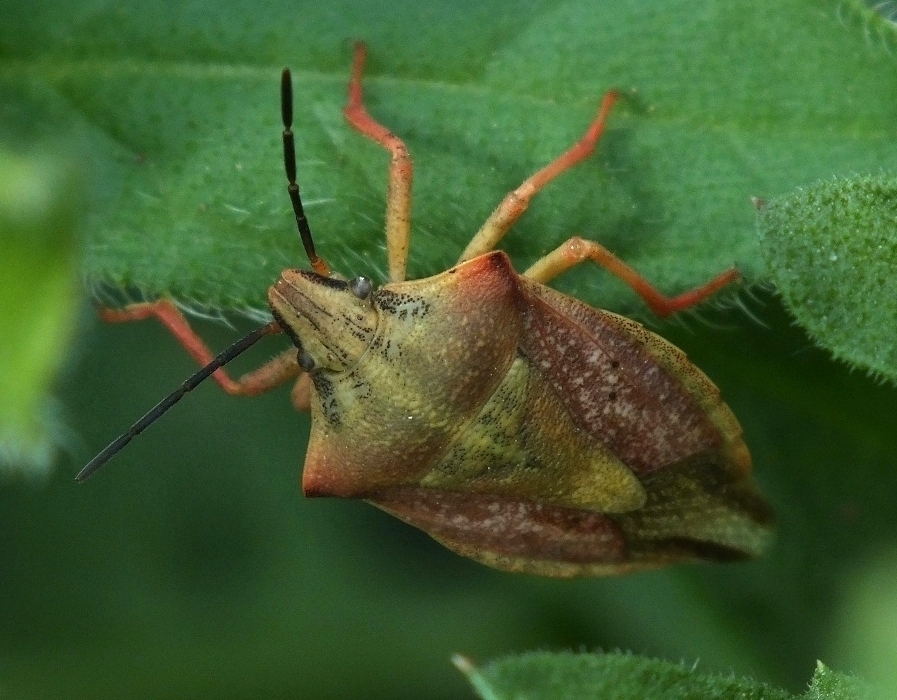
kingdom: Animalia
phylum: Arthropoda
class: Insecta
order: Hemiptera
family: Pentatomidae
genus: Carpocoris
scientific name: Carpocoris coreanus
